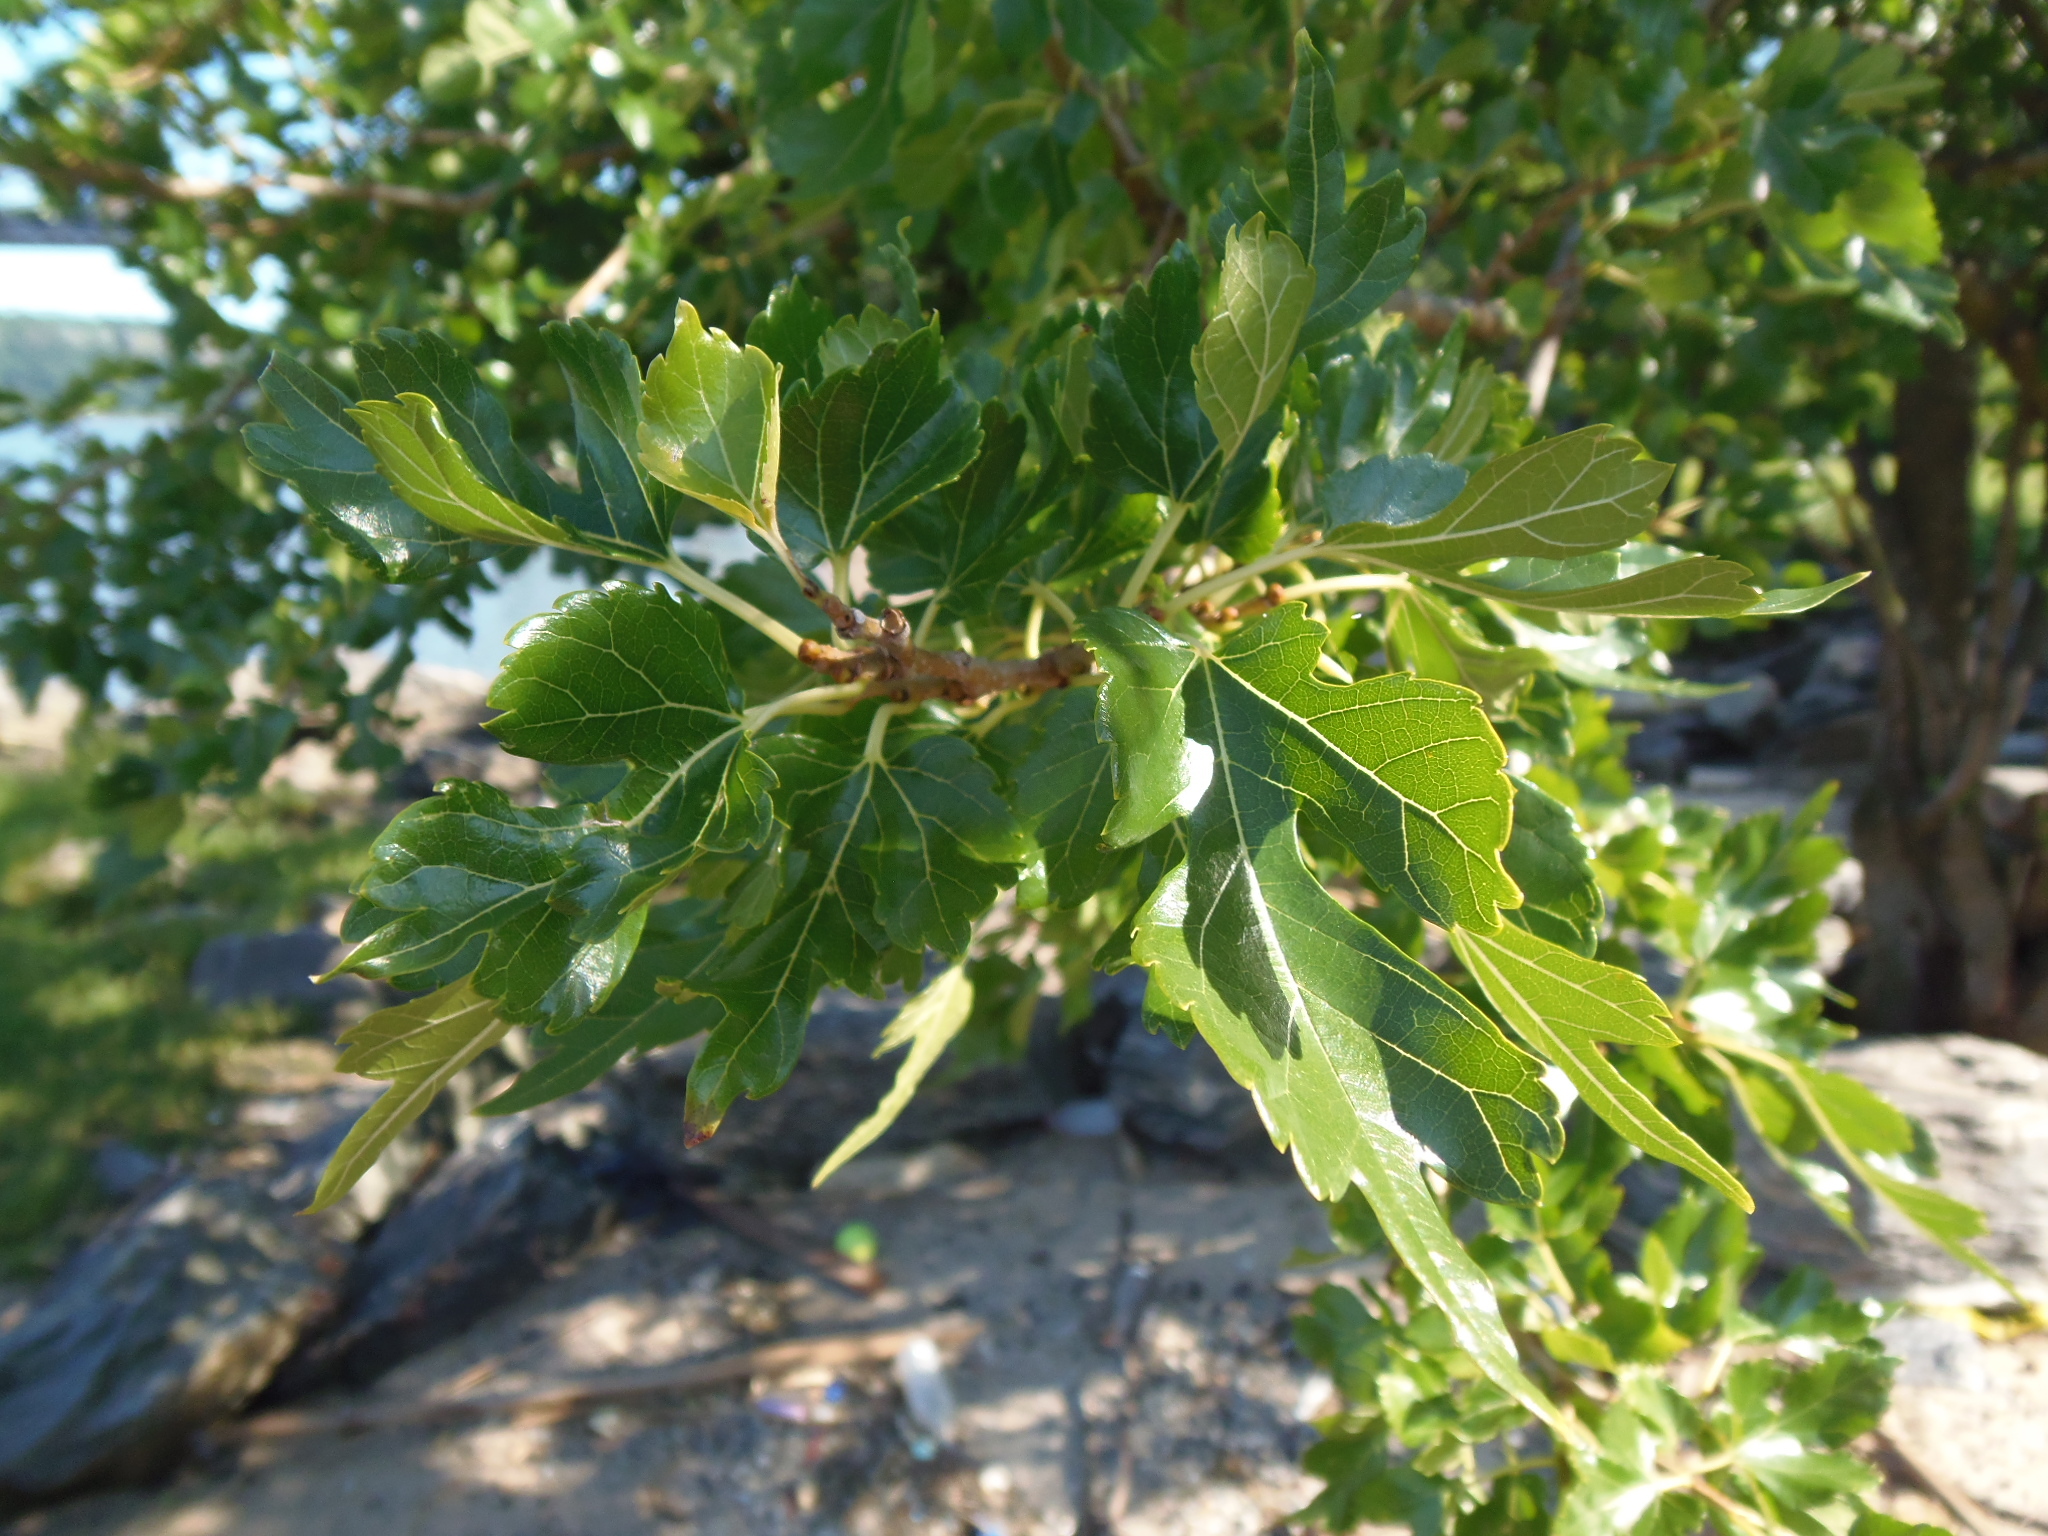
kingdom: Plantae
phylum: Tracheophyta
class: Magnoliopsida
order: Rosales
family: Moraceae
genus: Morus
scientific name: Morus alba
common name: White mulberry
